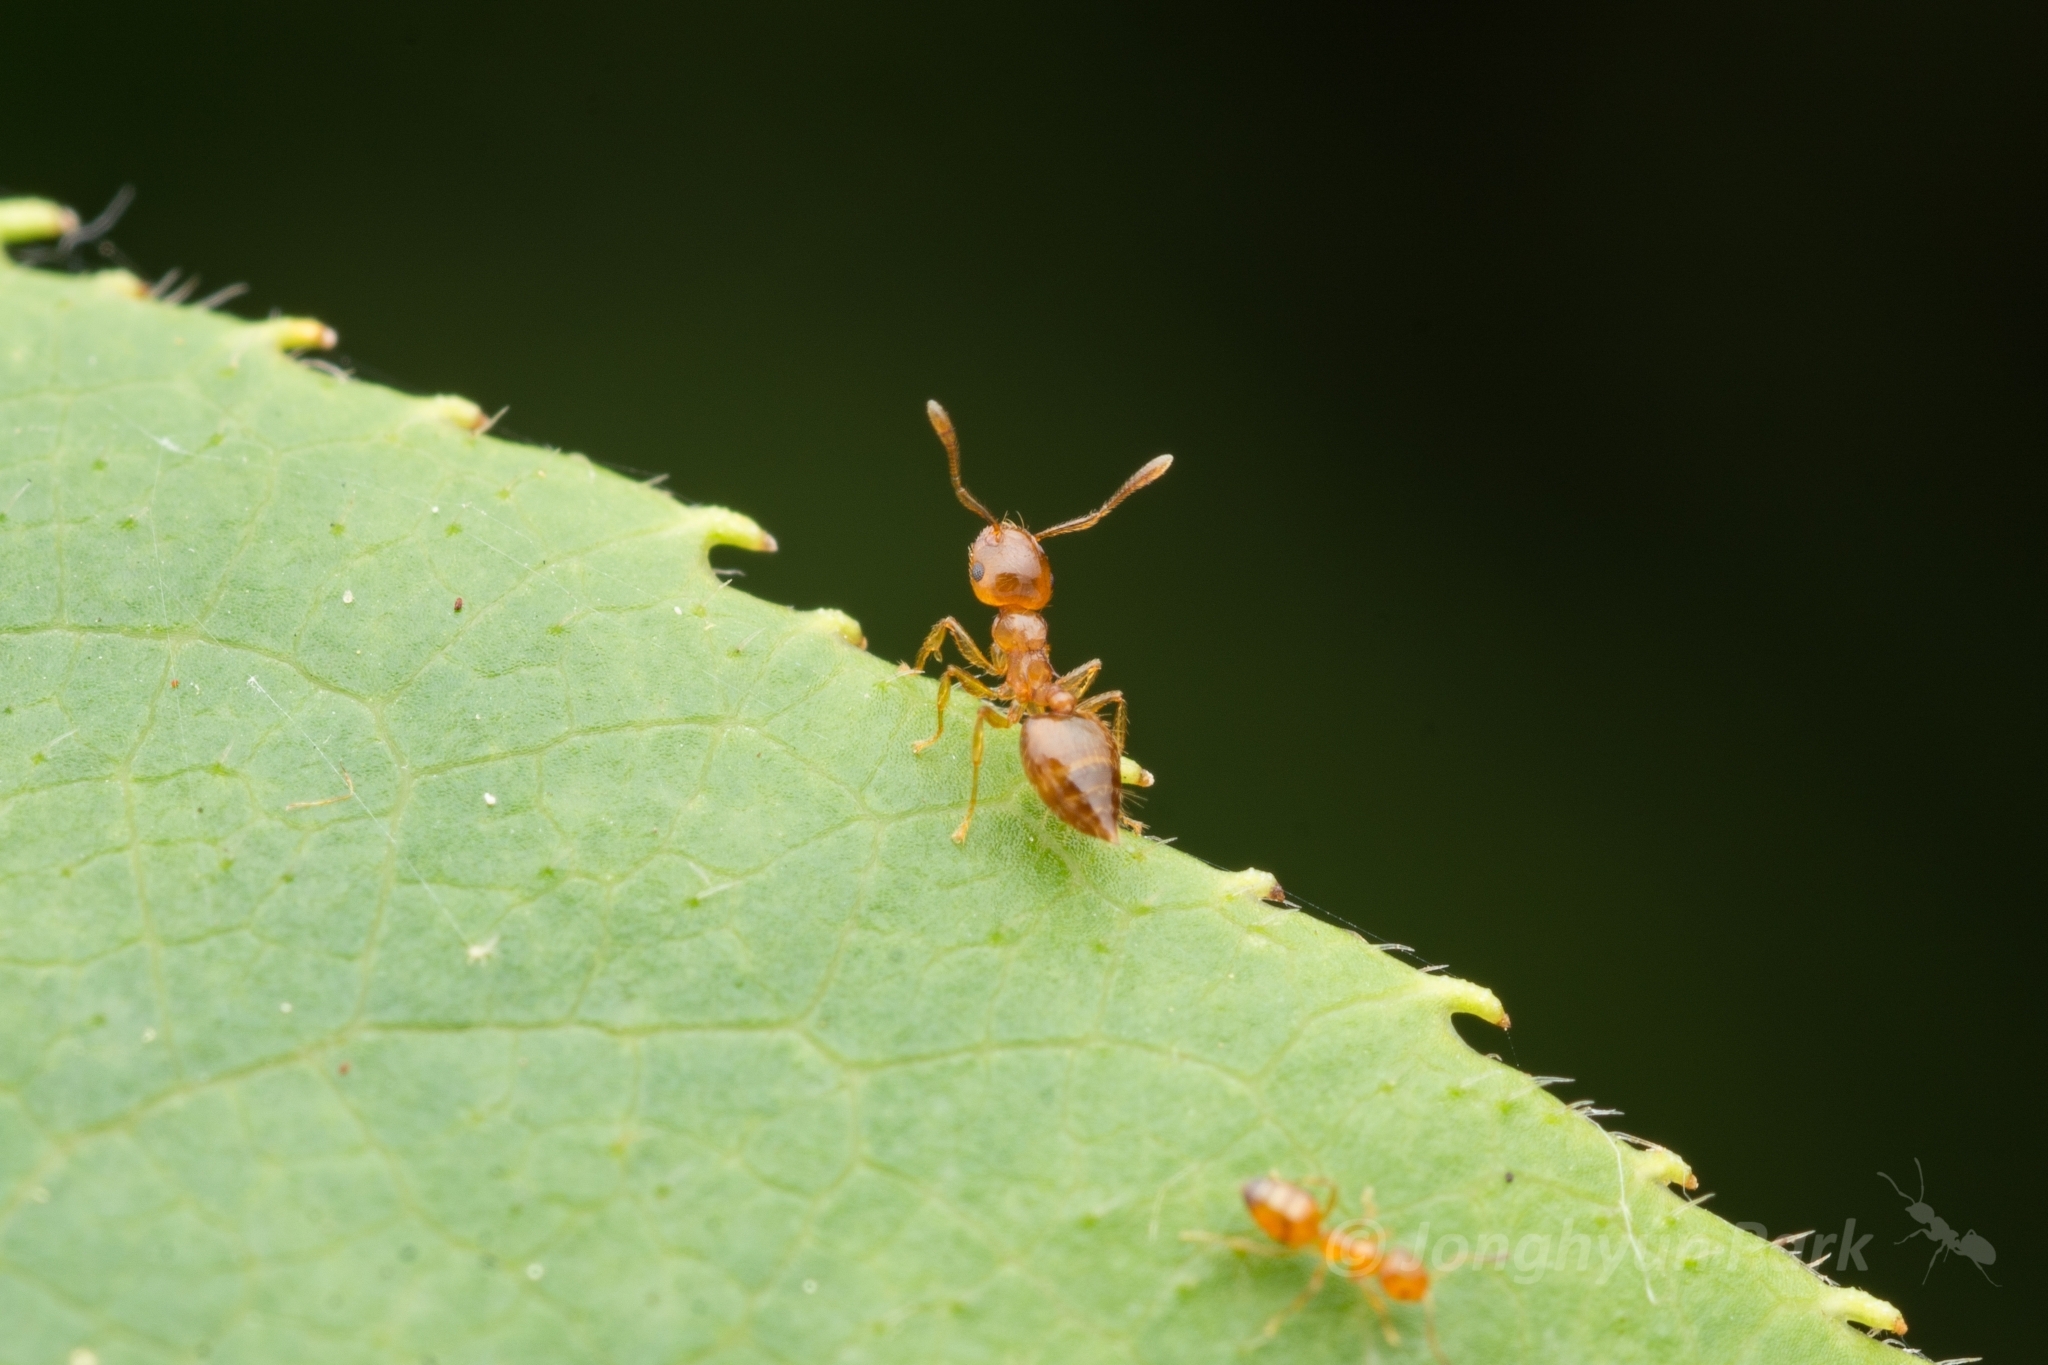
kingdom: Animalia
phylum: Arthropoda
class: Insecta
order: Hymenoptera
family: Formicidae
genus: Plagiolepis
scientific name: Plagiolepis flavescens
